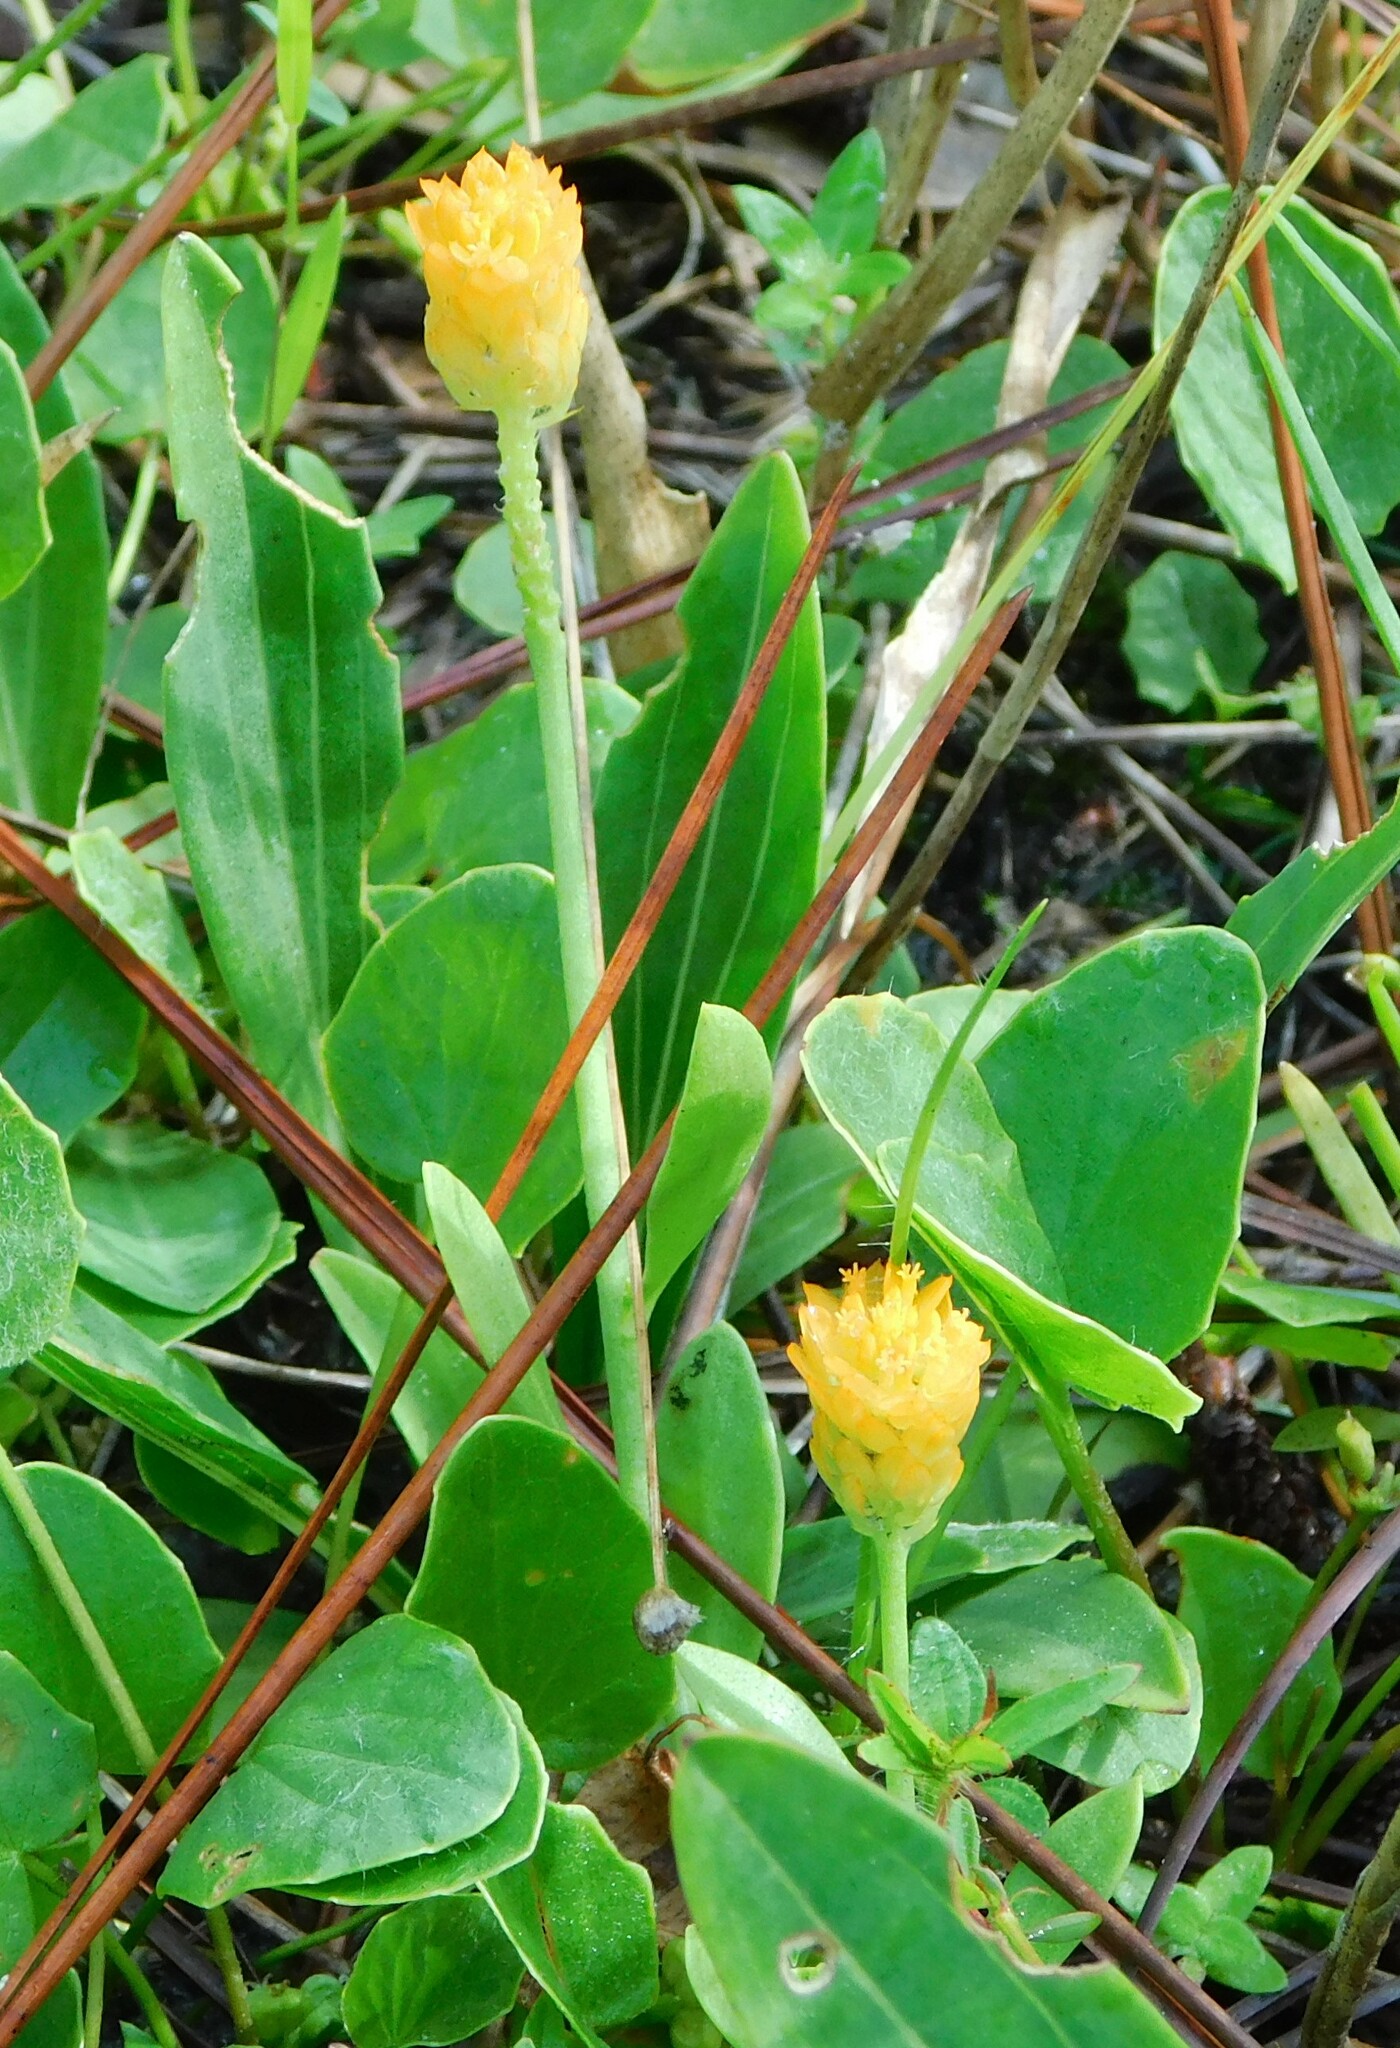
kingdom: Plantae
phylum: Tracheophyta
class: Magnoliopsida
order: Fabales
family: Polygalaceae
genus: Polygala
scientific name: Polygala lutea
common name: Orange milkwort
